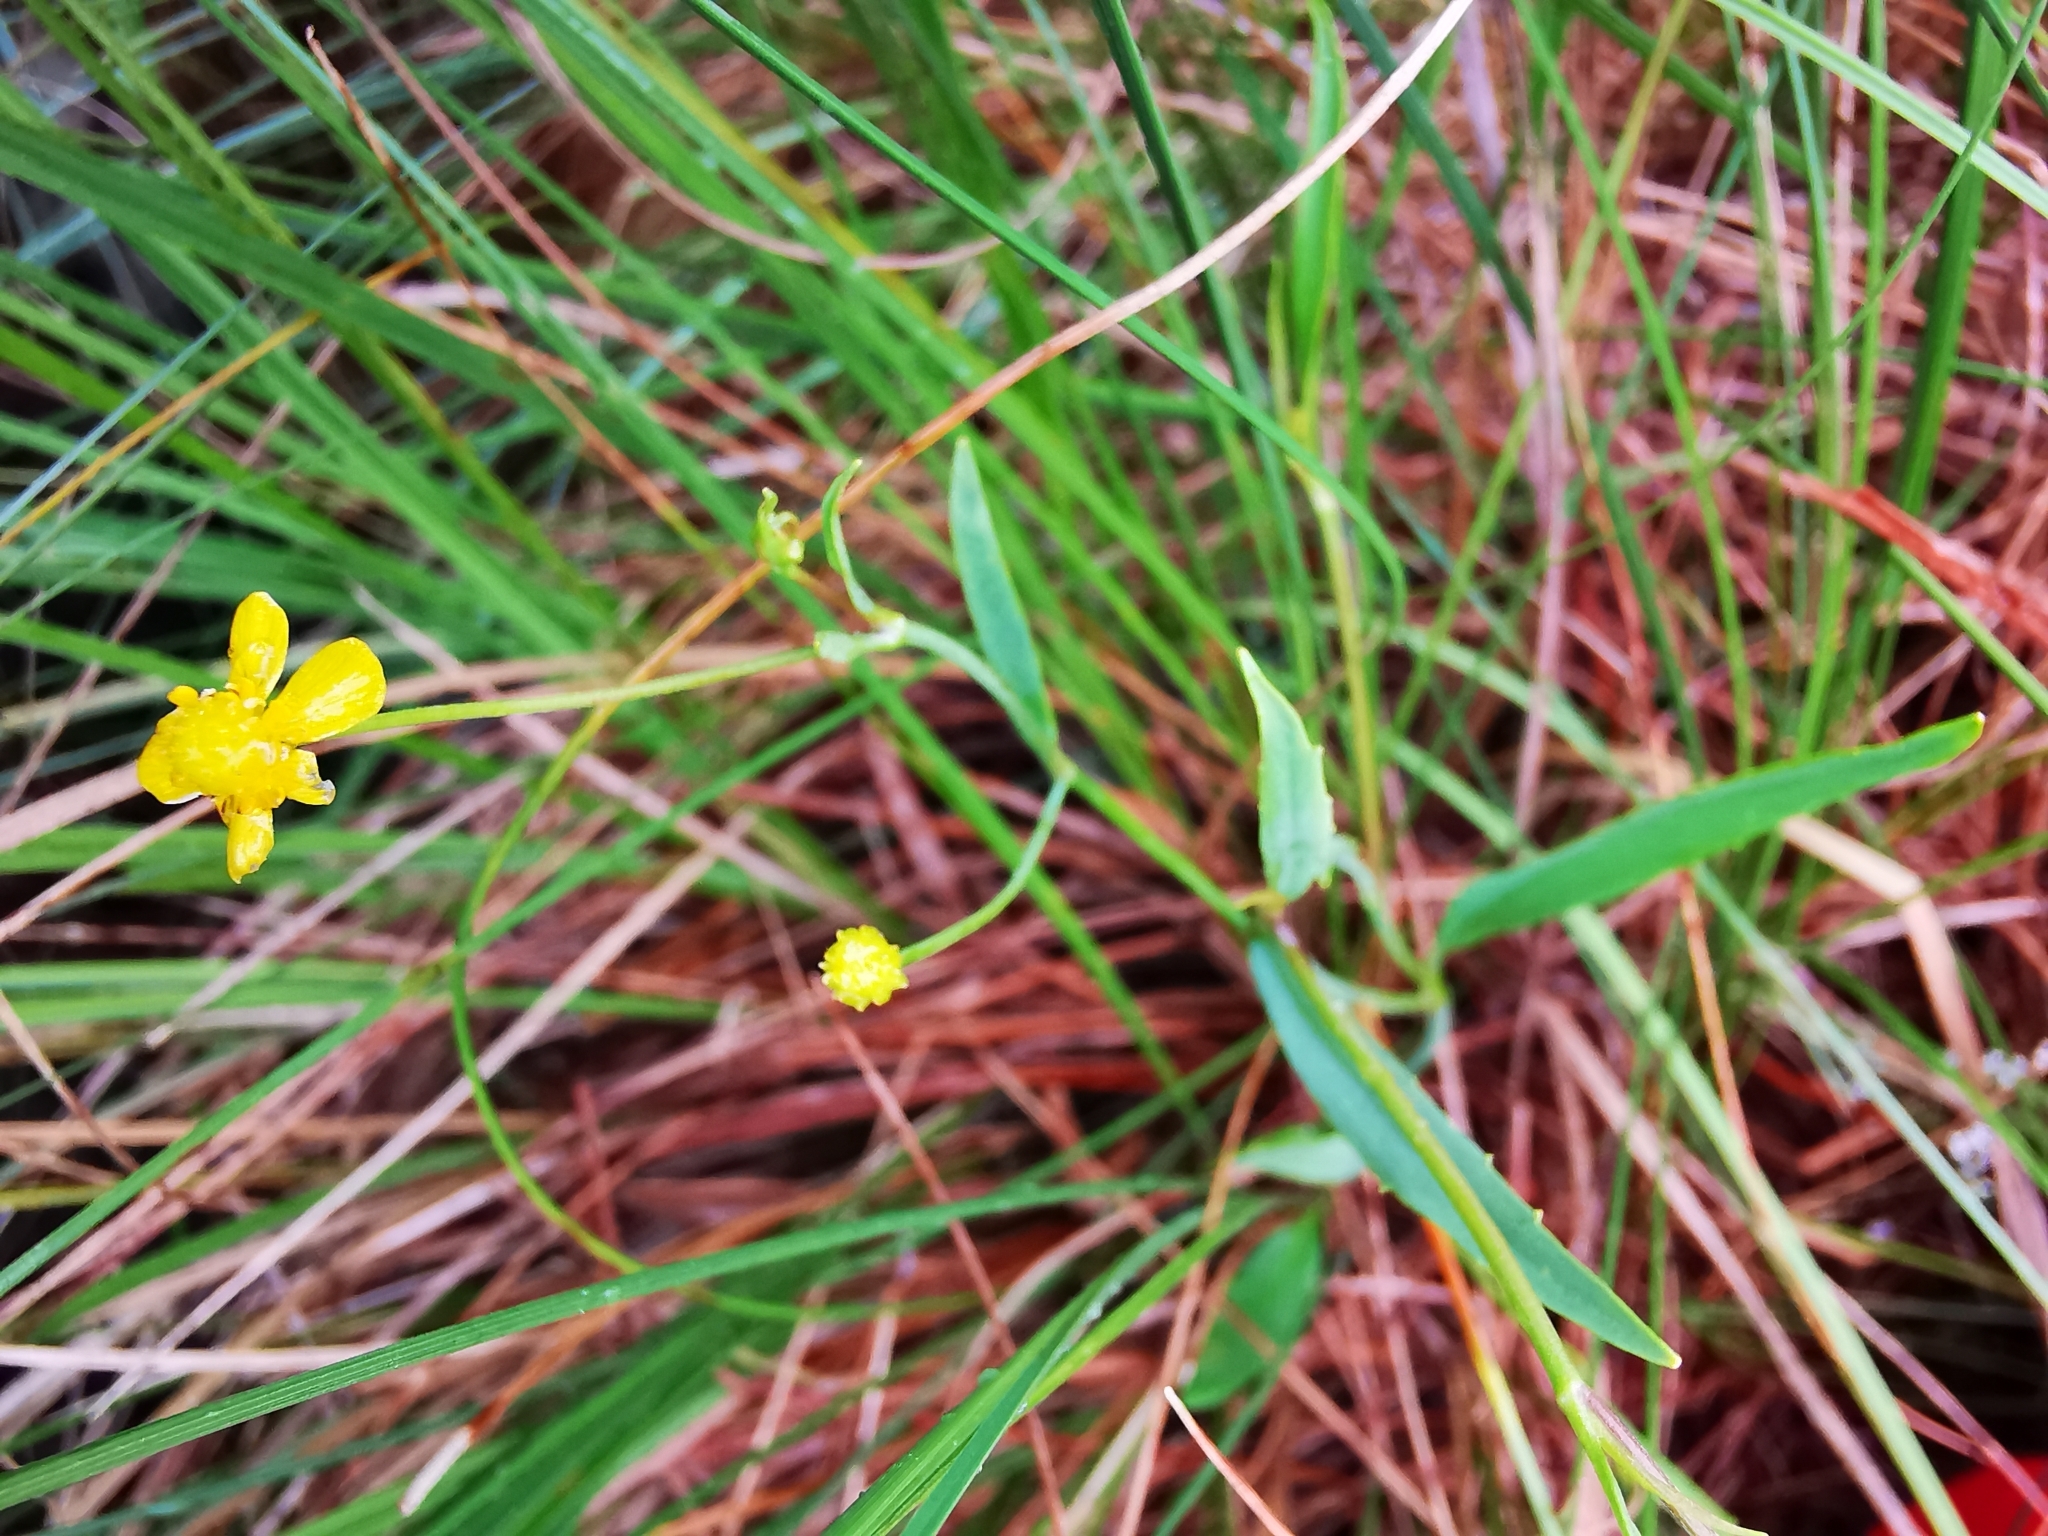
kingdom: Plantae
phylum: Tracheophyta
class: Magnoliopsida
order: Ranunculales
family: Ranunculaceae
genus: Ranunculus
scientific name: Ranunculus flammula
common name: Lesser spearwort
